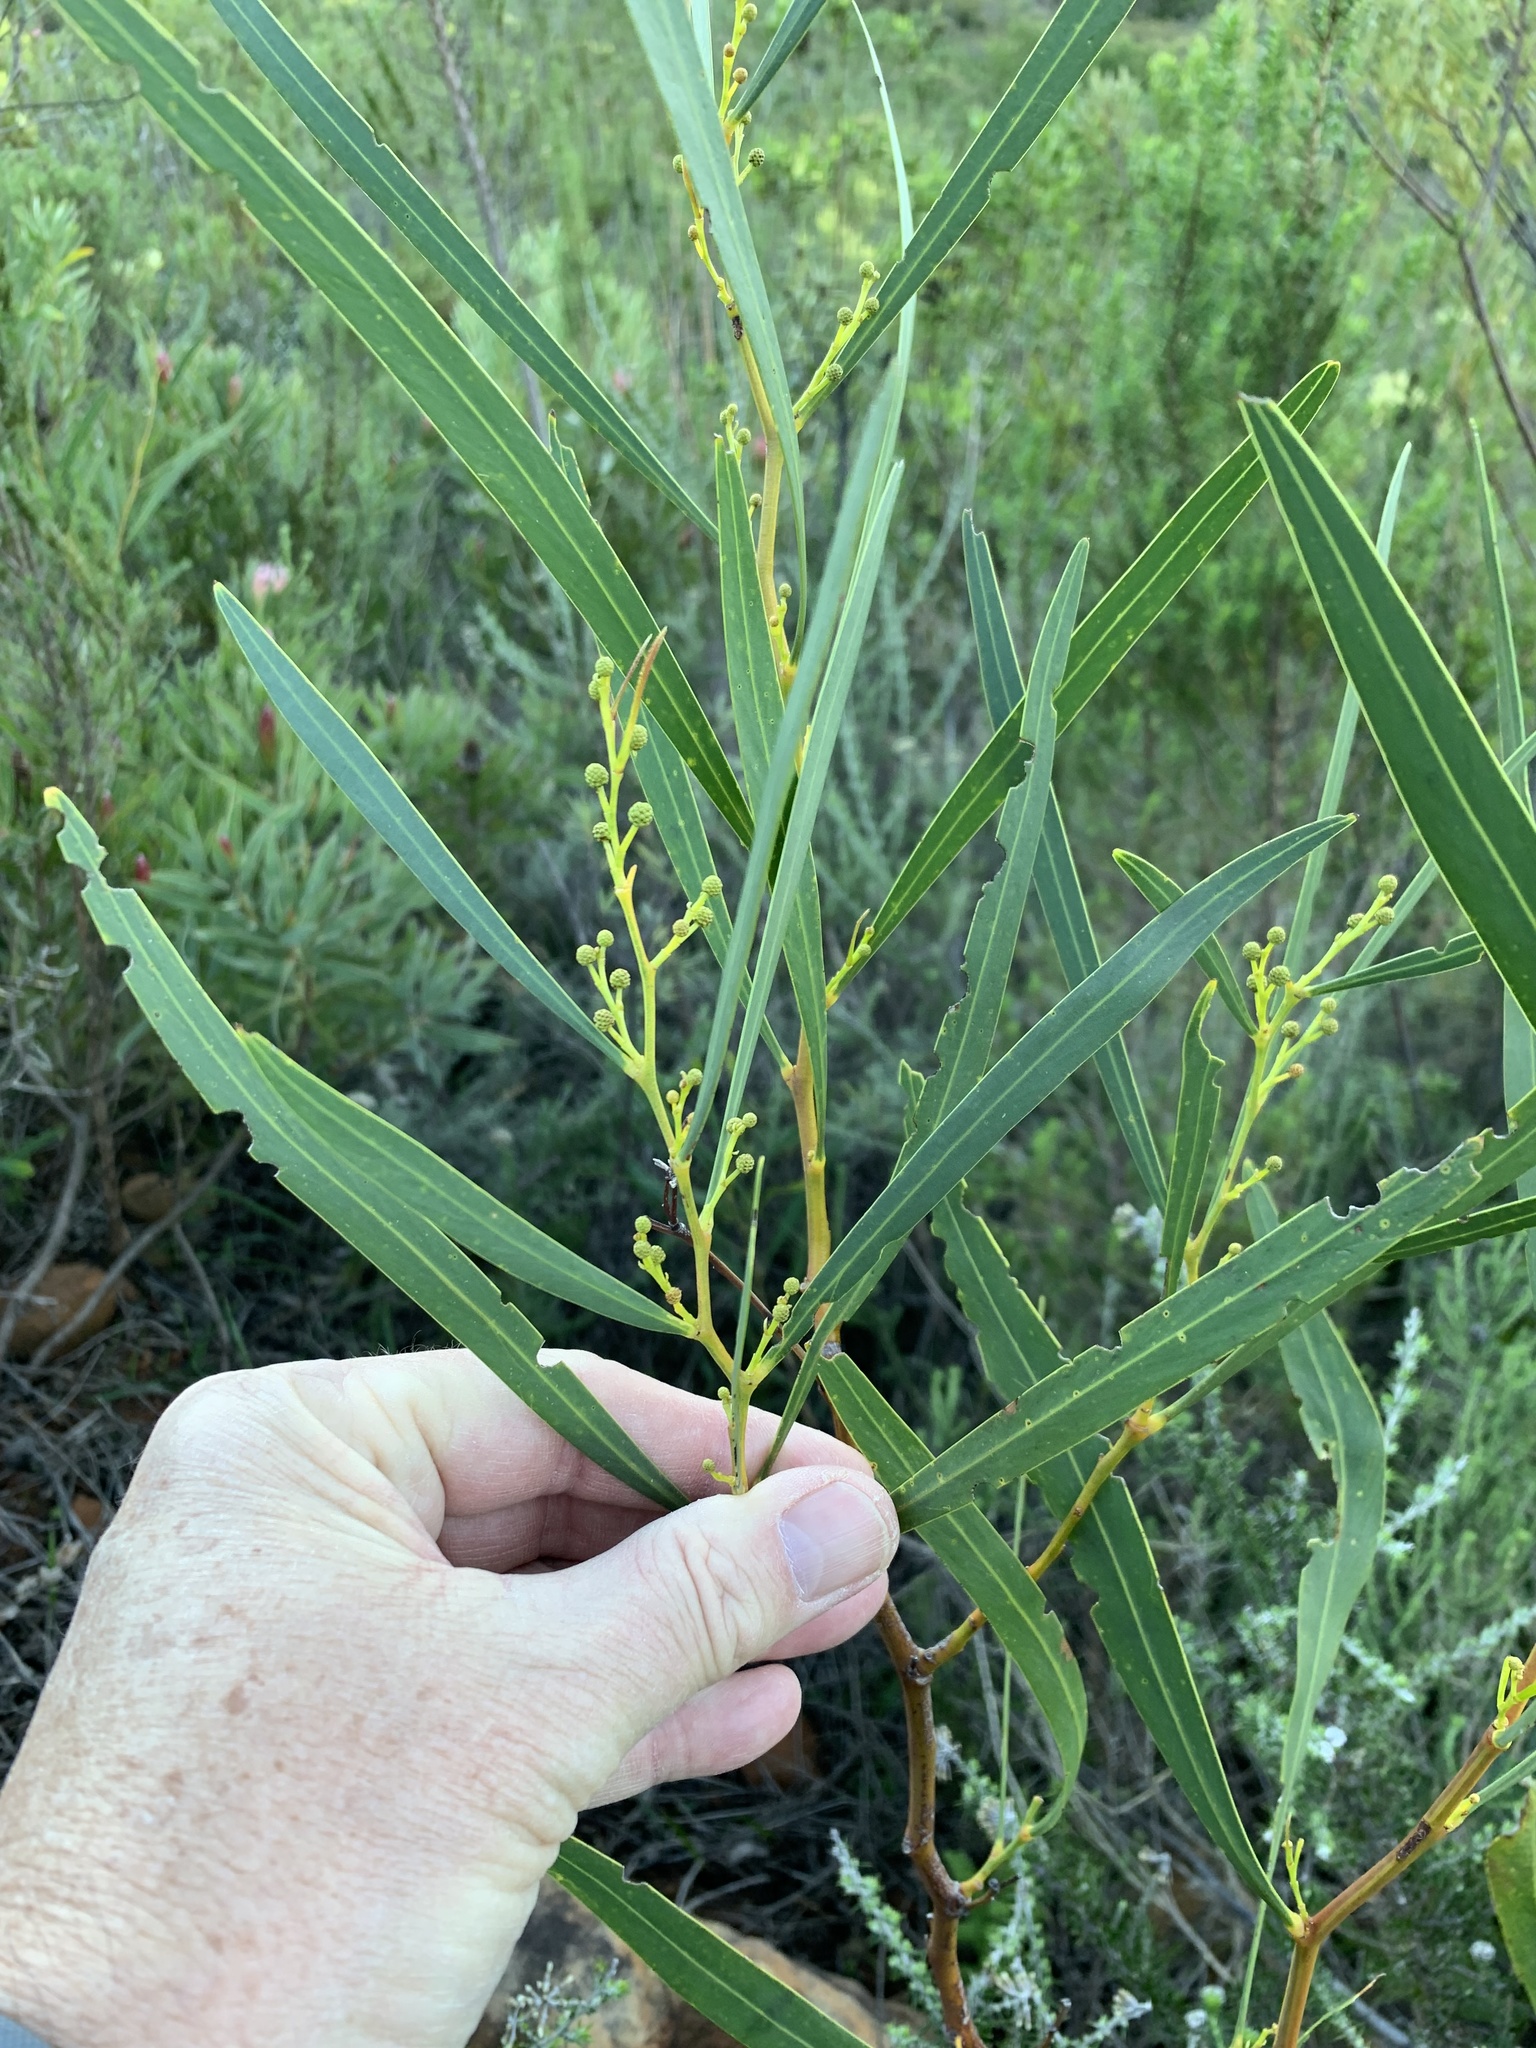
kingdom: Plantae
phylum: Tracheophyta
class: Magnoliopsida
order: Fabales
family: Fabaceae
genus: Acacia
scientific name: Acacia saligna
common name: Orange wattle
